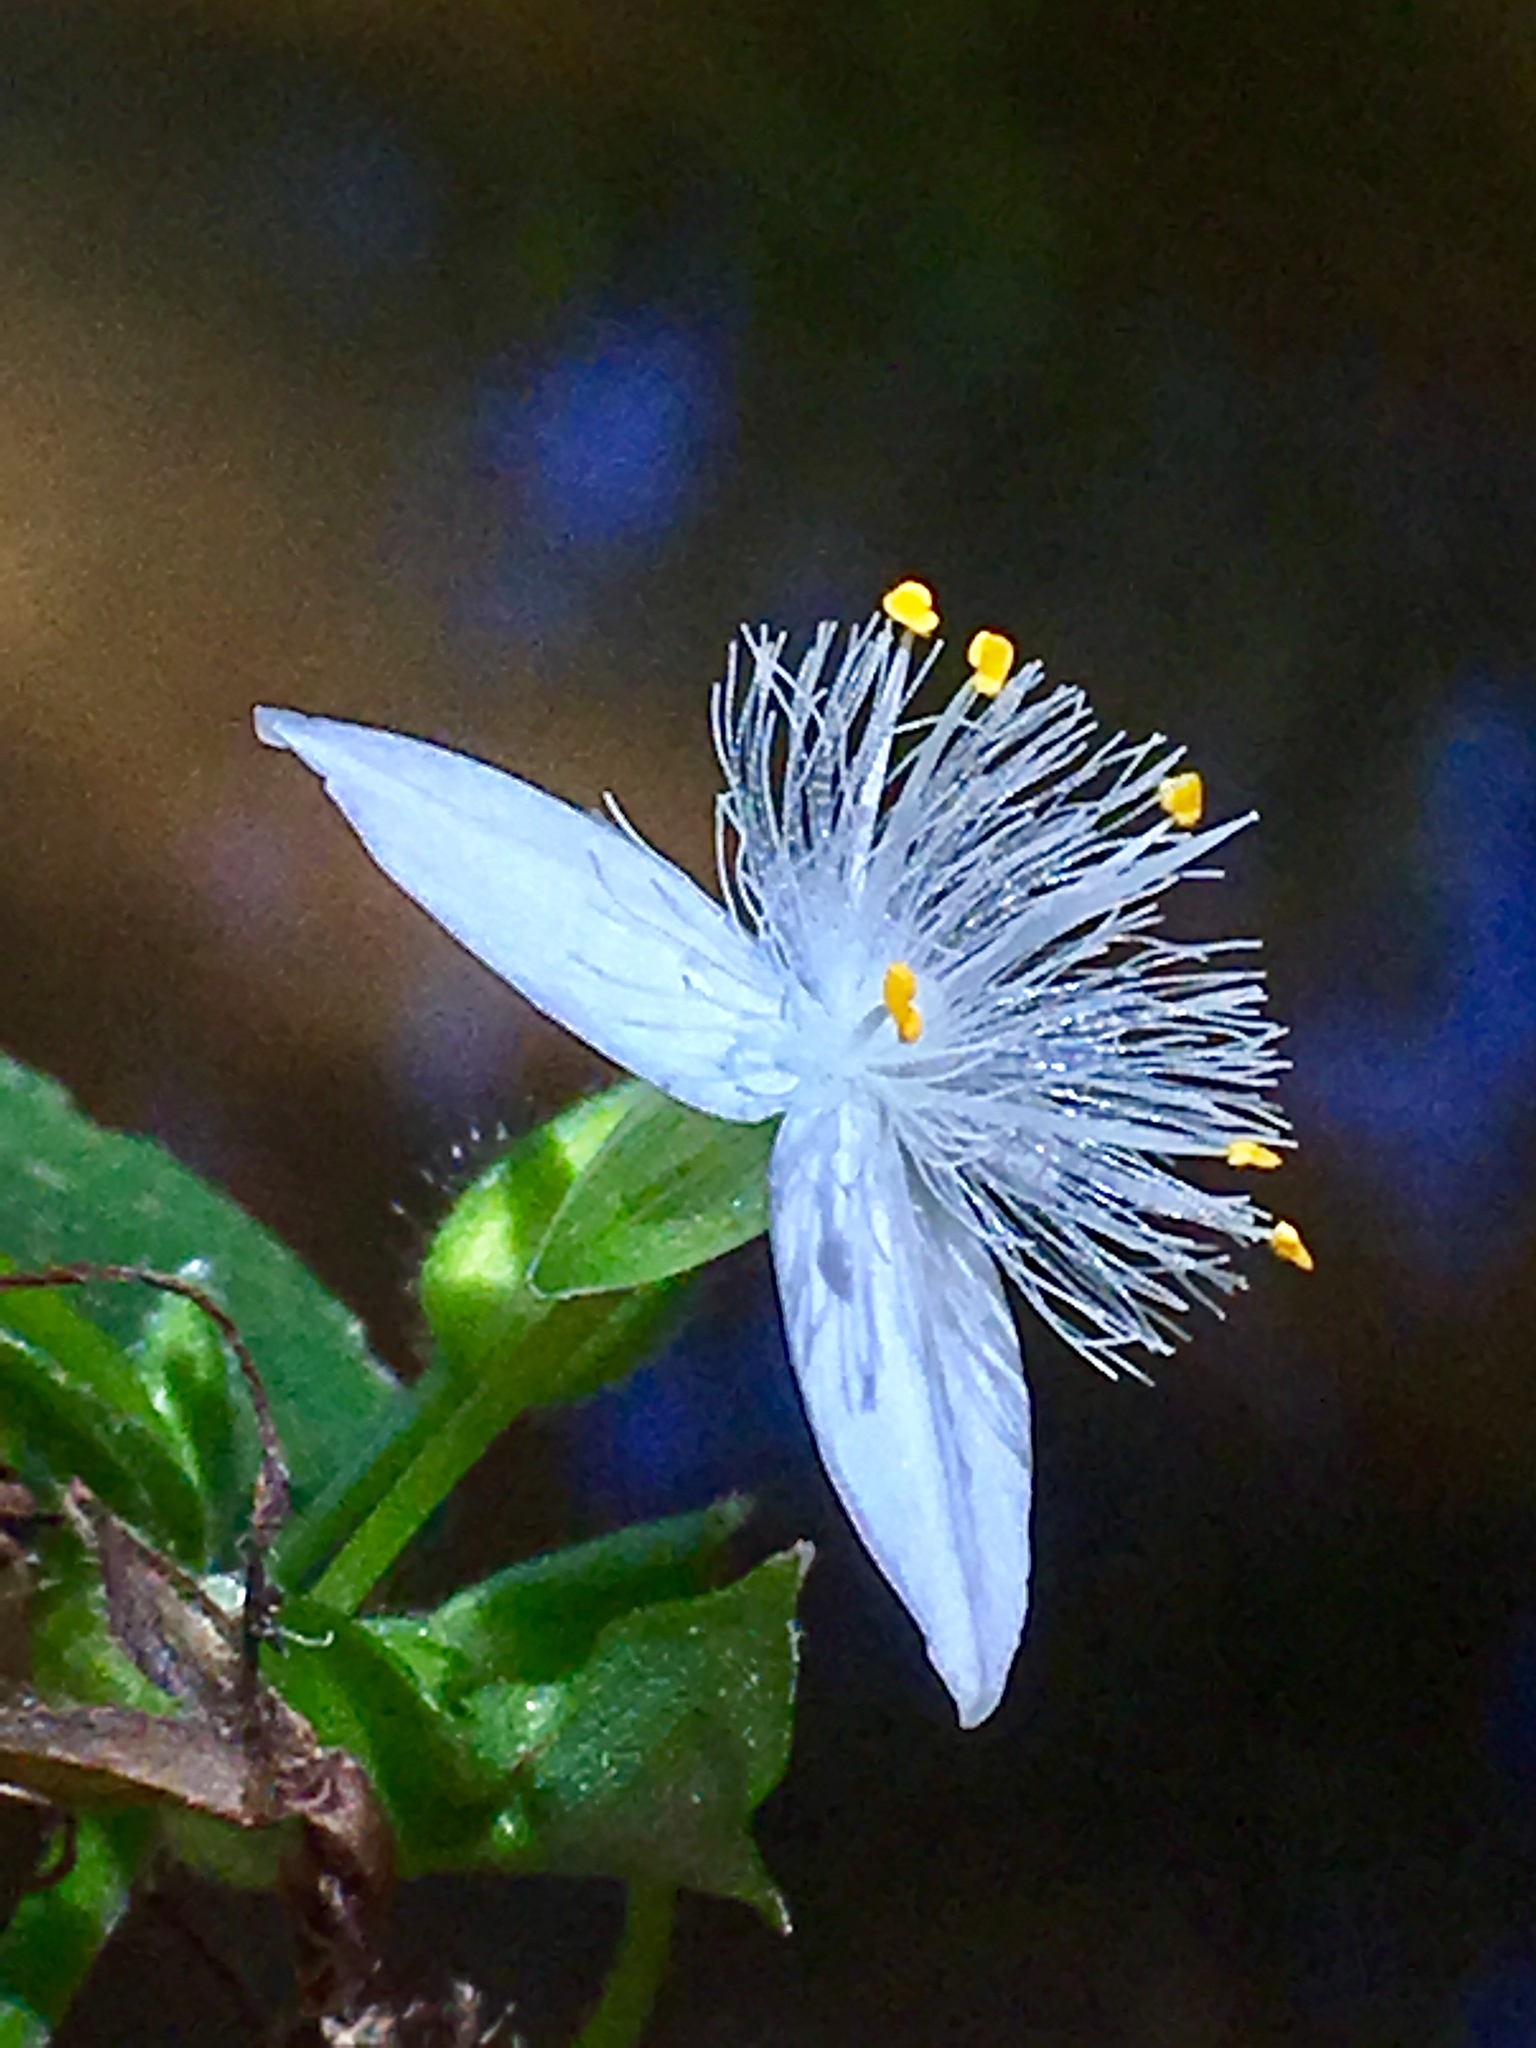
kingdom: Plantae
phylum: Tracheophyta
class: Liliopsida
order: Commelinales
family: Commelinaceae
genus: Tradescantia
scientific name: Tradescantia fluminensis
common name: Wandering-jew
